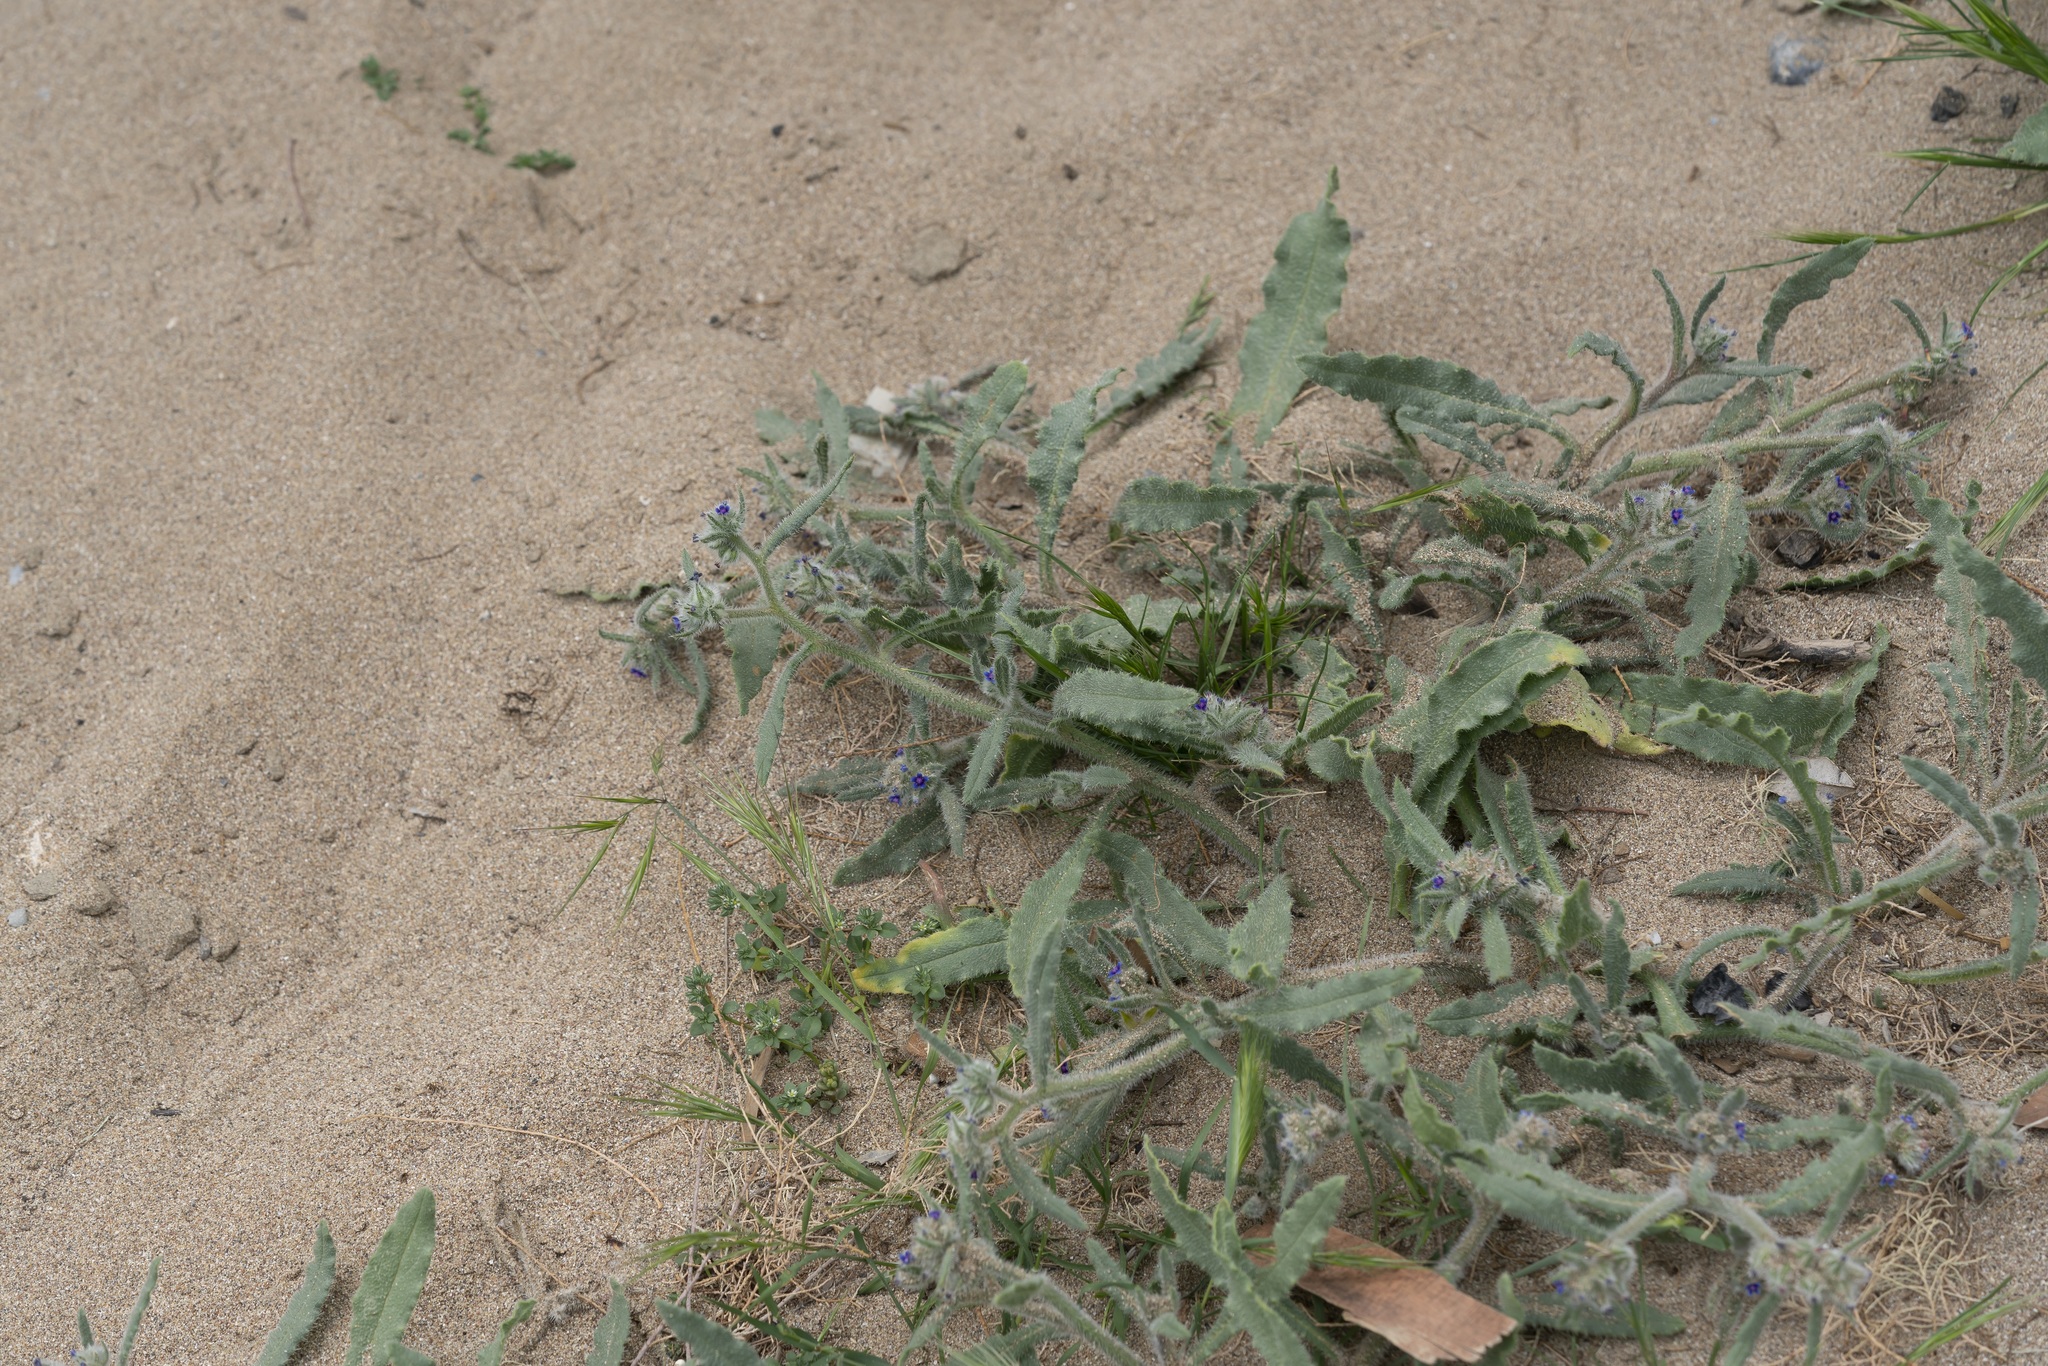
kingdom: Plantae
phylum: Tracheophyta
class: Magnoliopsida
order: Boraginales
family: Boraginaceae
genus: Hormuzakia
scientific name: Hormuzakia aggregata
